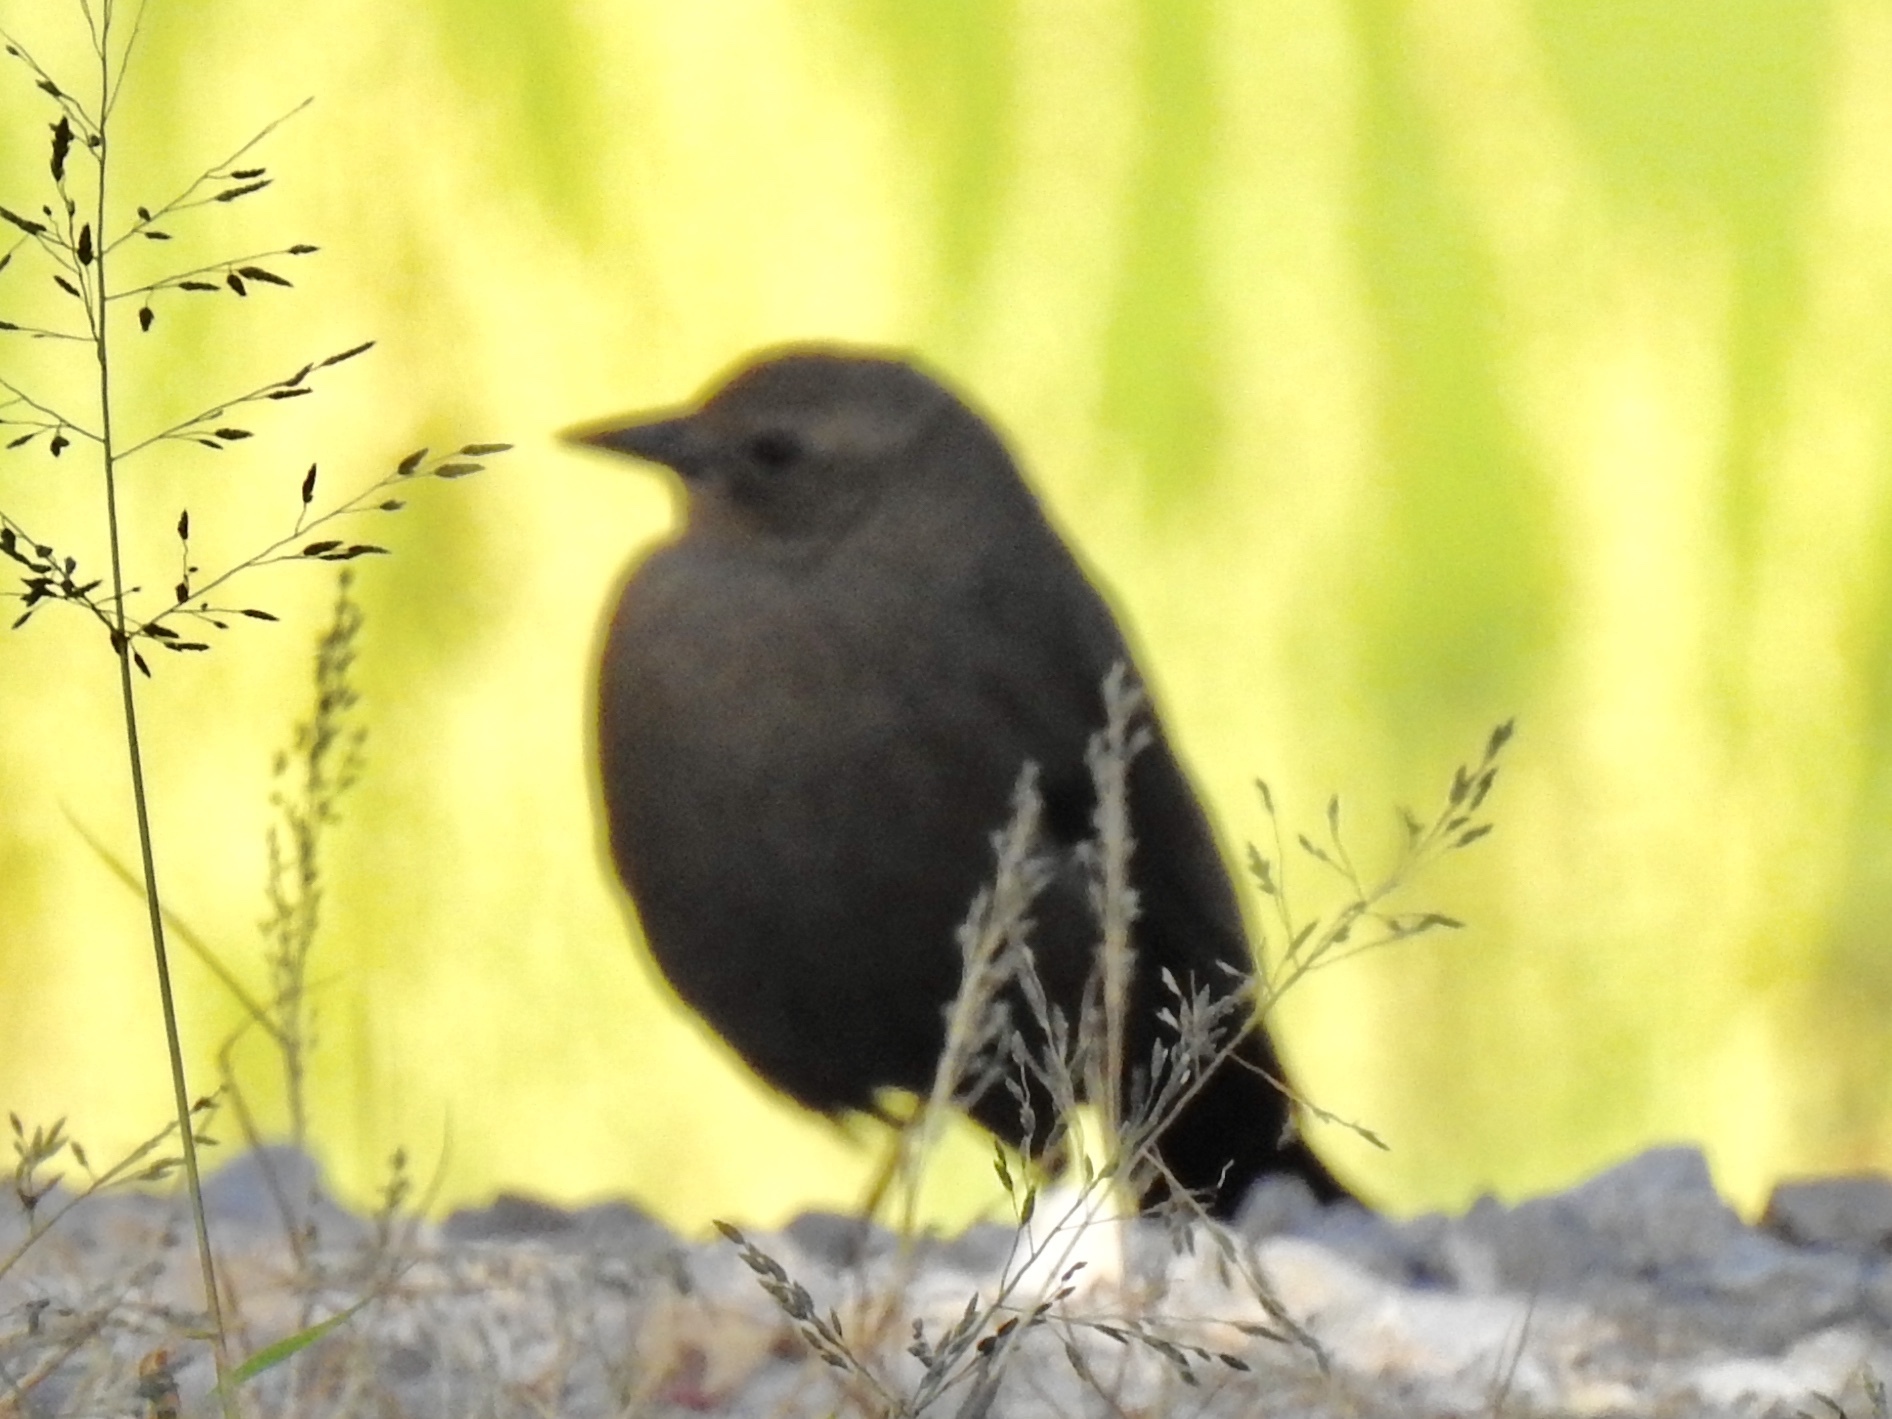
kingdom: Animalia
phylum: Chordata
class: Aves
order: Passeriformes
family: Icteridae
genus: Euphagus
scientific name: Euphagus cyanocephalus
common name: Brewer's blackbird
